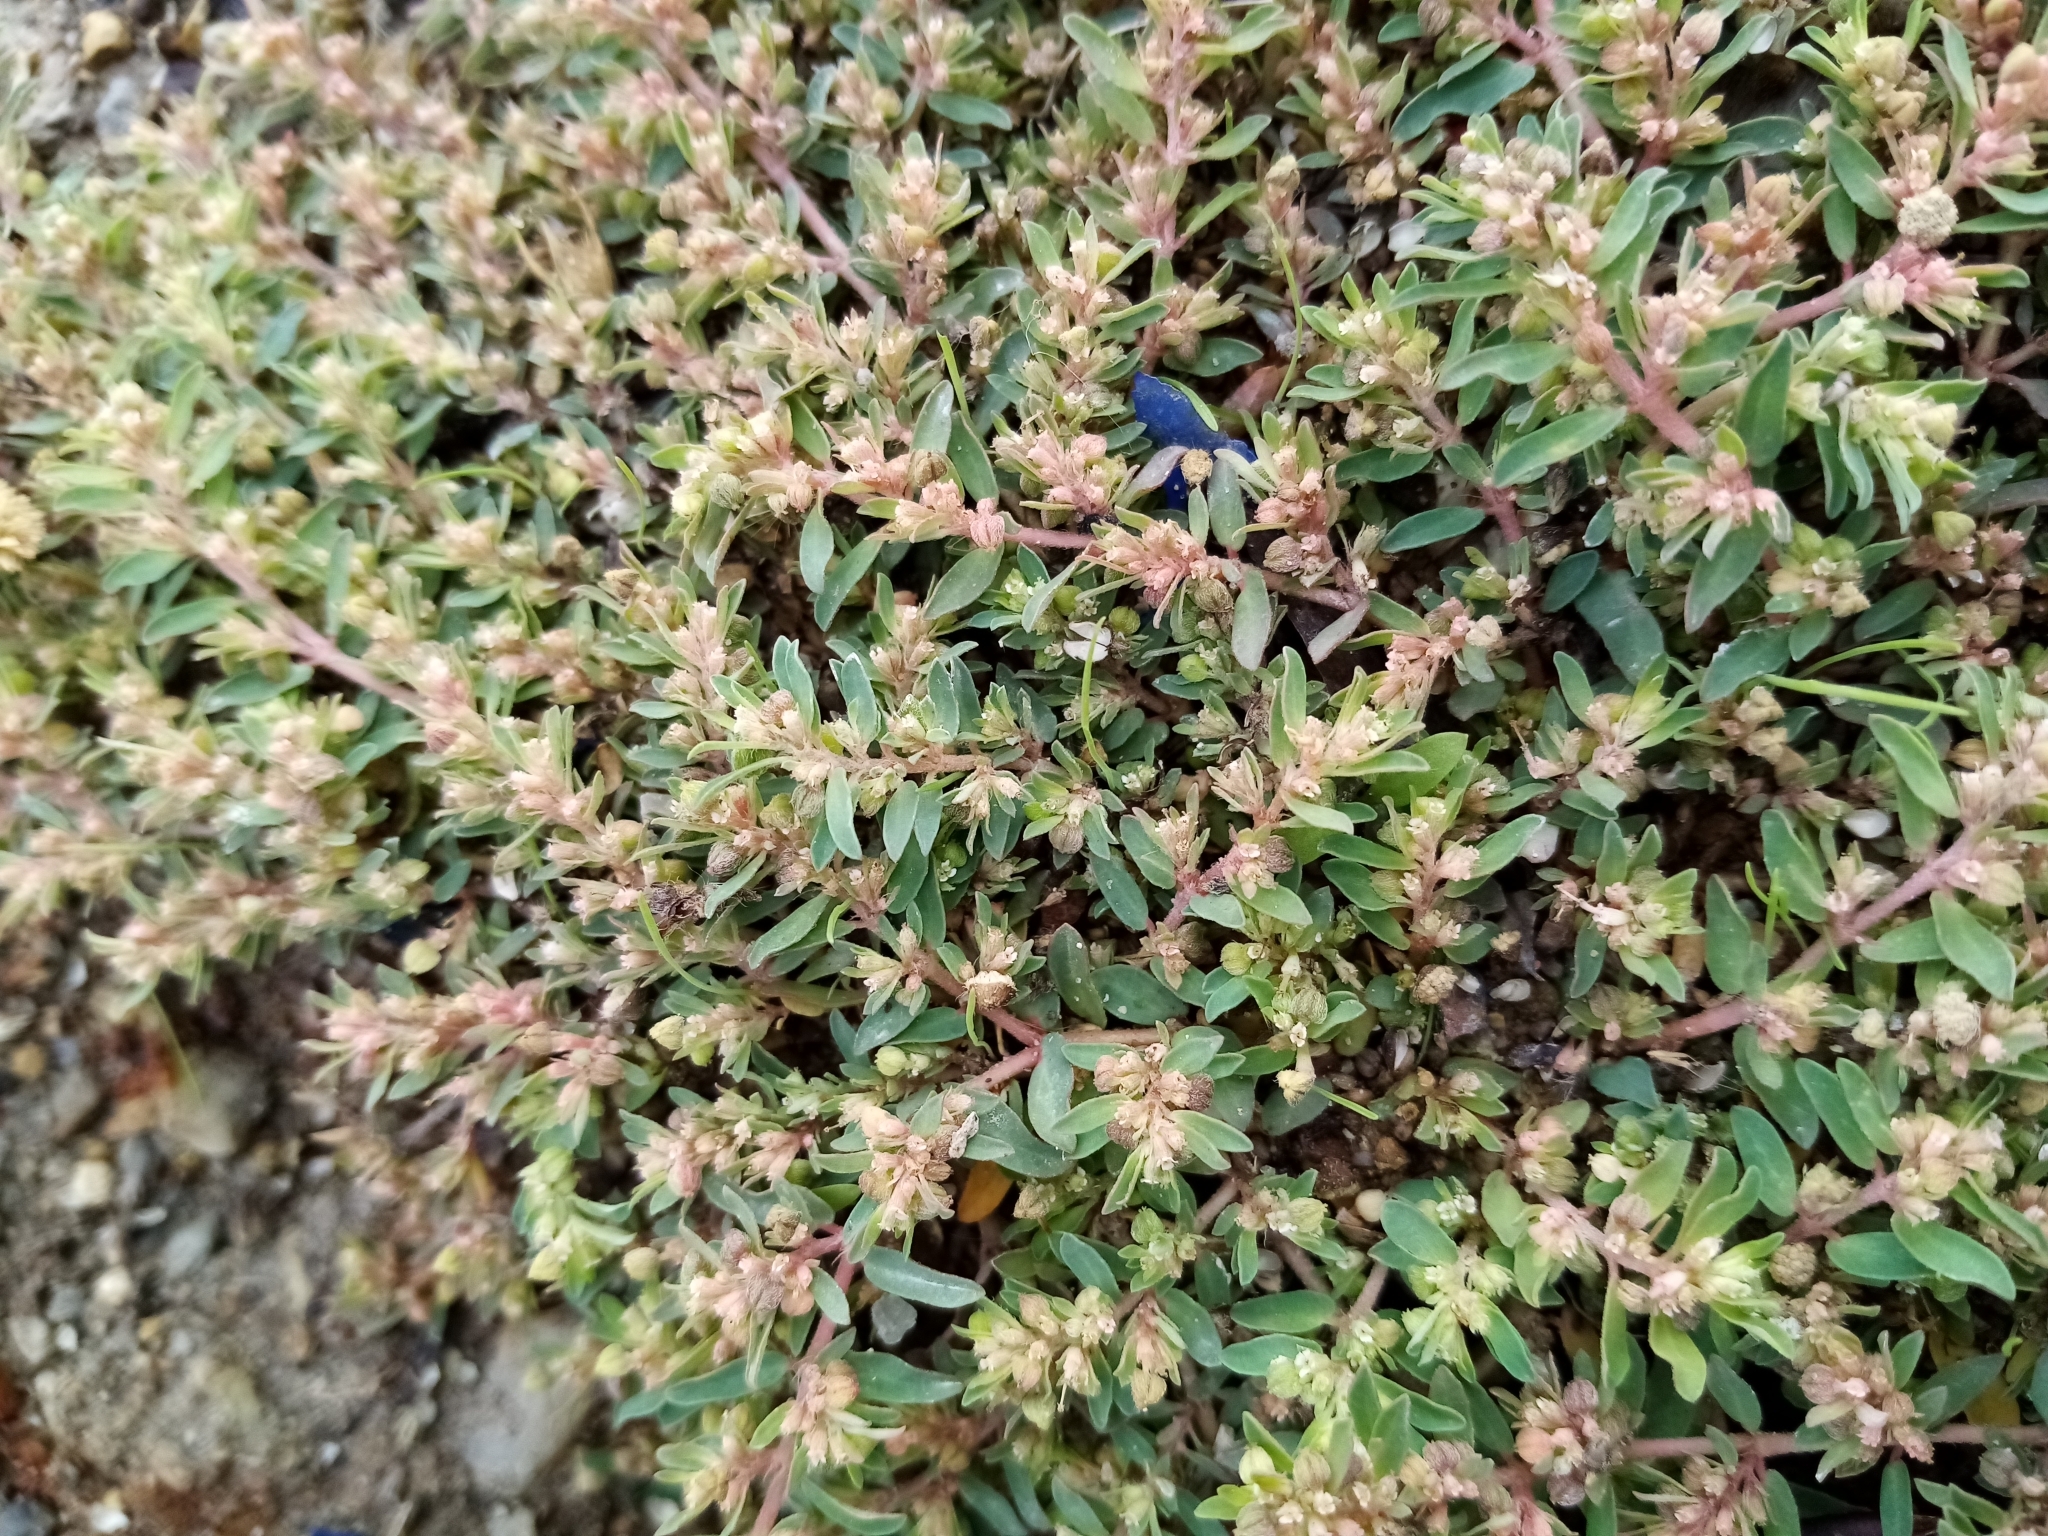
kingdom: Plantae
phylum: Tracheophyta
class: Magnoliopsida
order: Malpighiales
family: Euphorbiaceae
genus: Euphorbia
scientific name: Euphorbia maculata
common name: Spotted spurge
